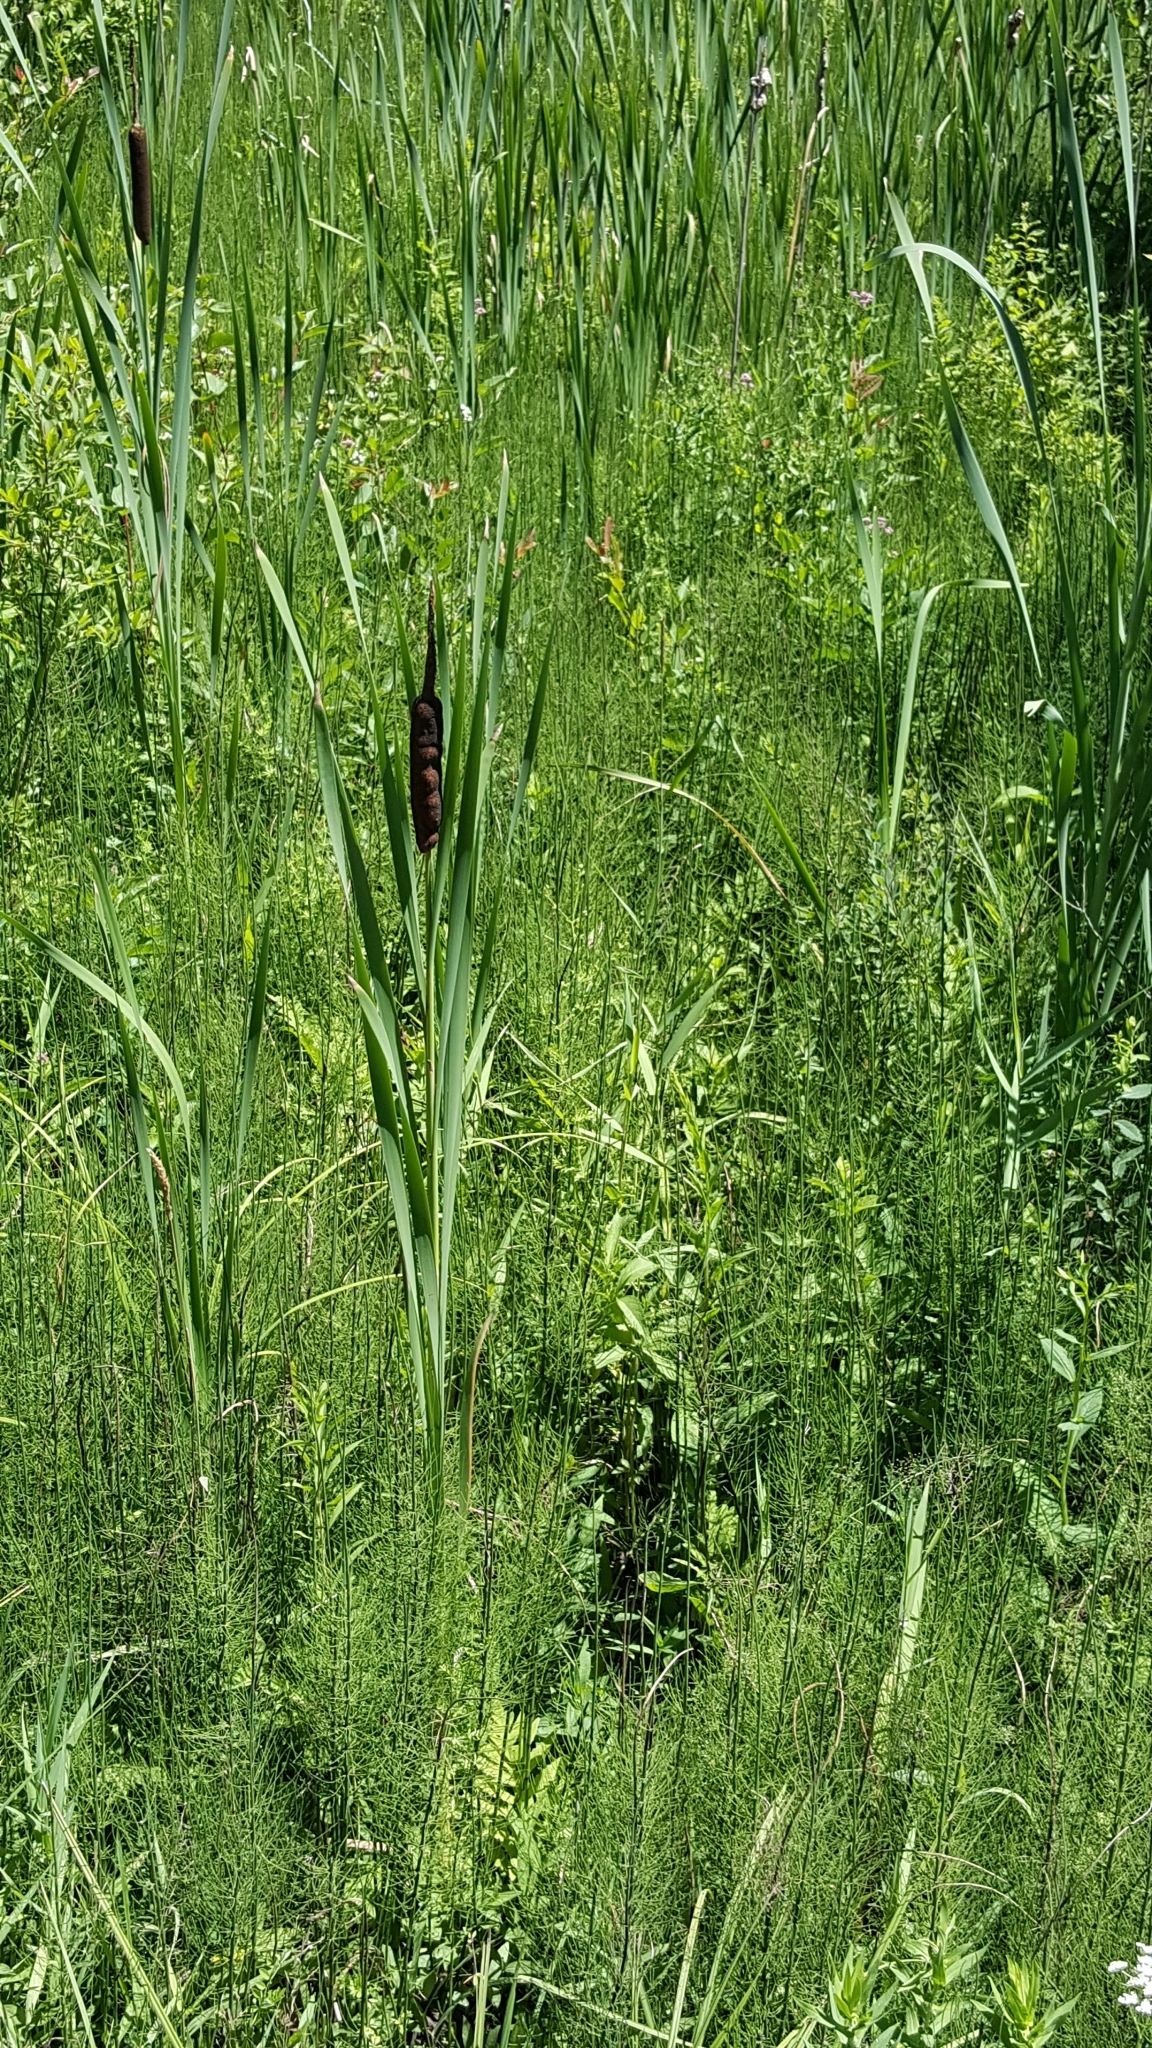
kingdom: Plantae
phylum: Tracheophyta
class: Polypodiopsida
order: Equisetales
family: Equisetaceae
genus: Equisetum
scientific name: Equisetum fluviatile
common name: Water horsetail
